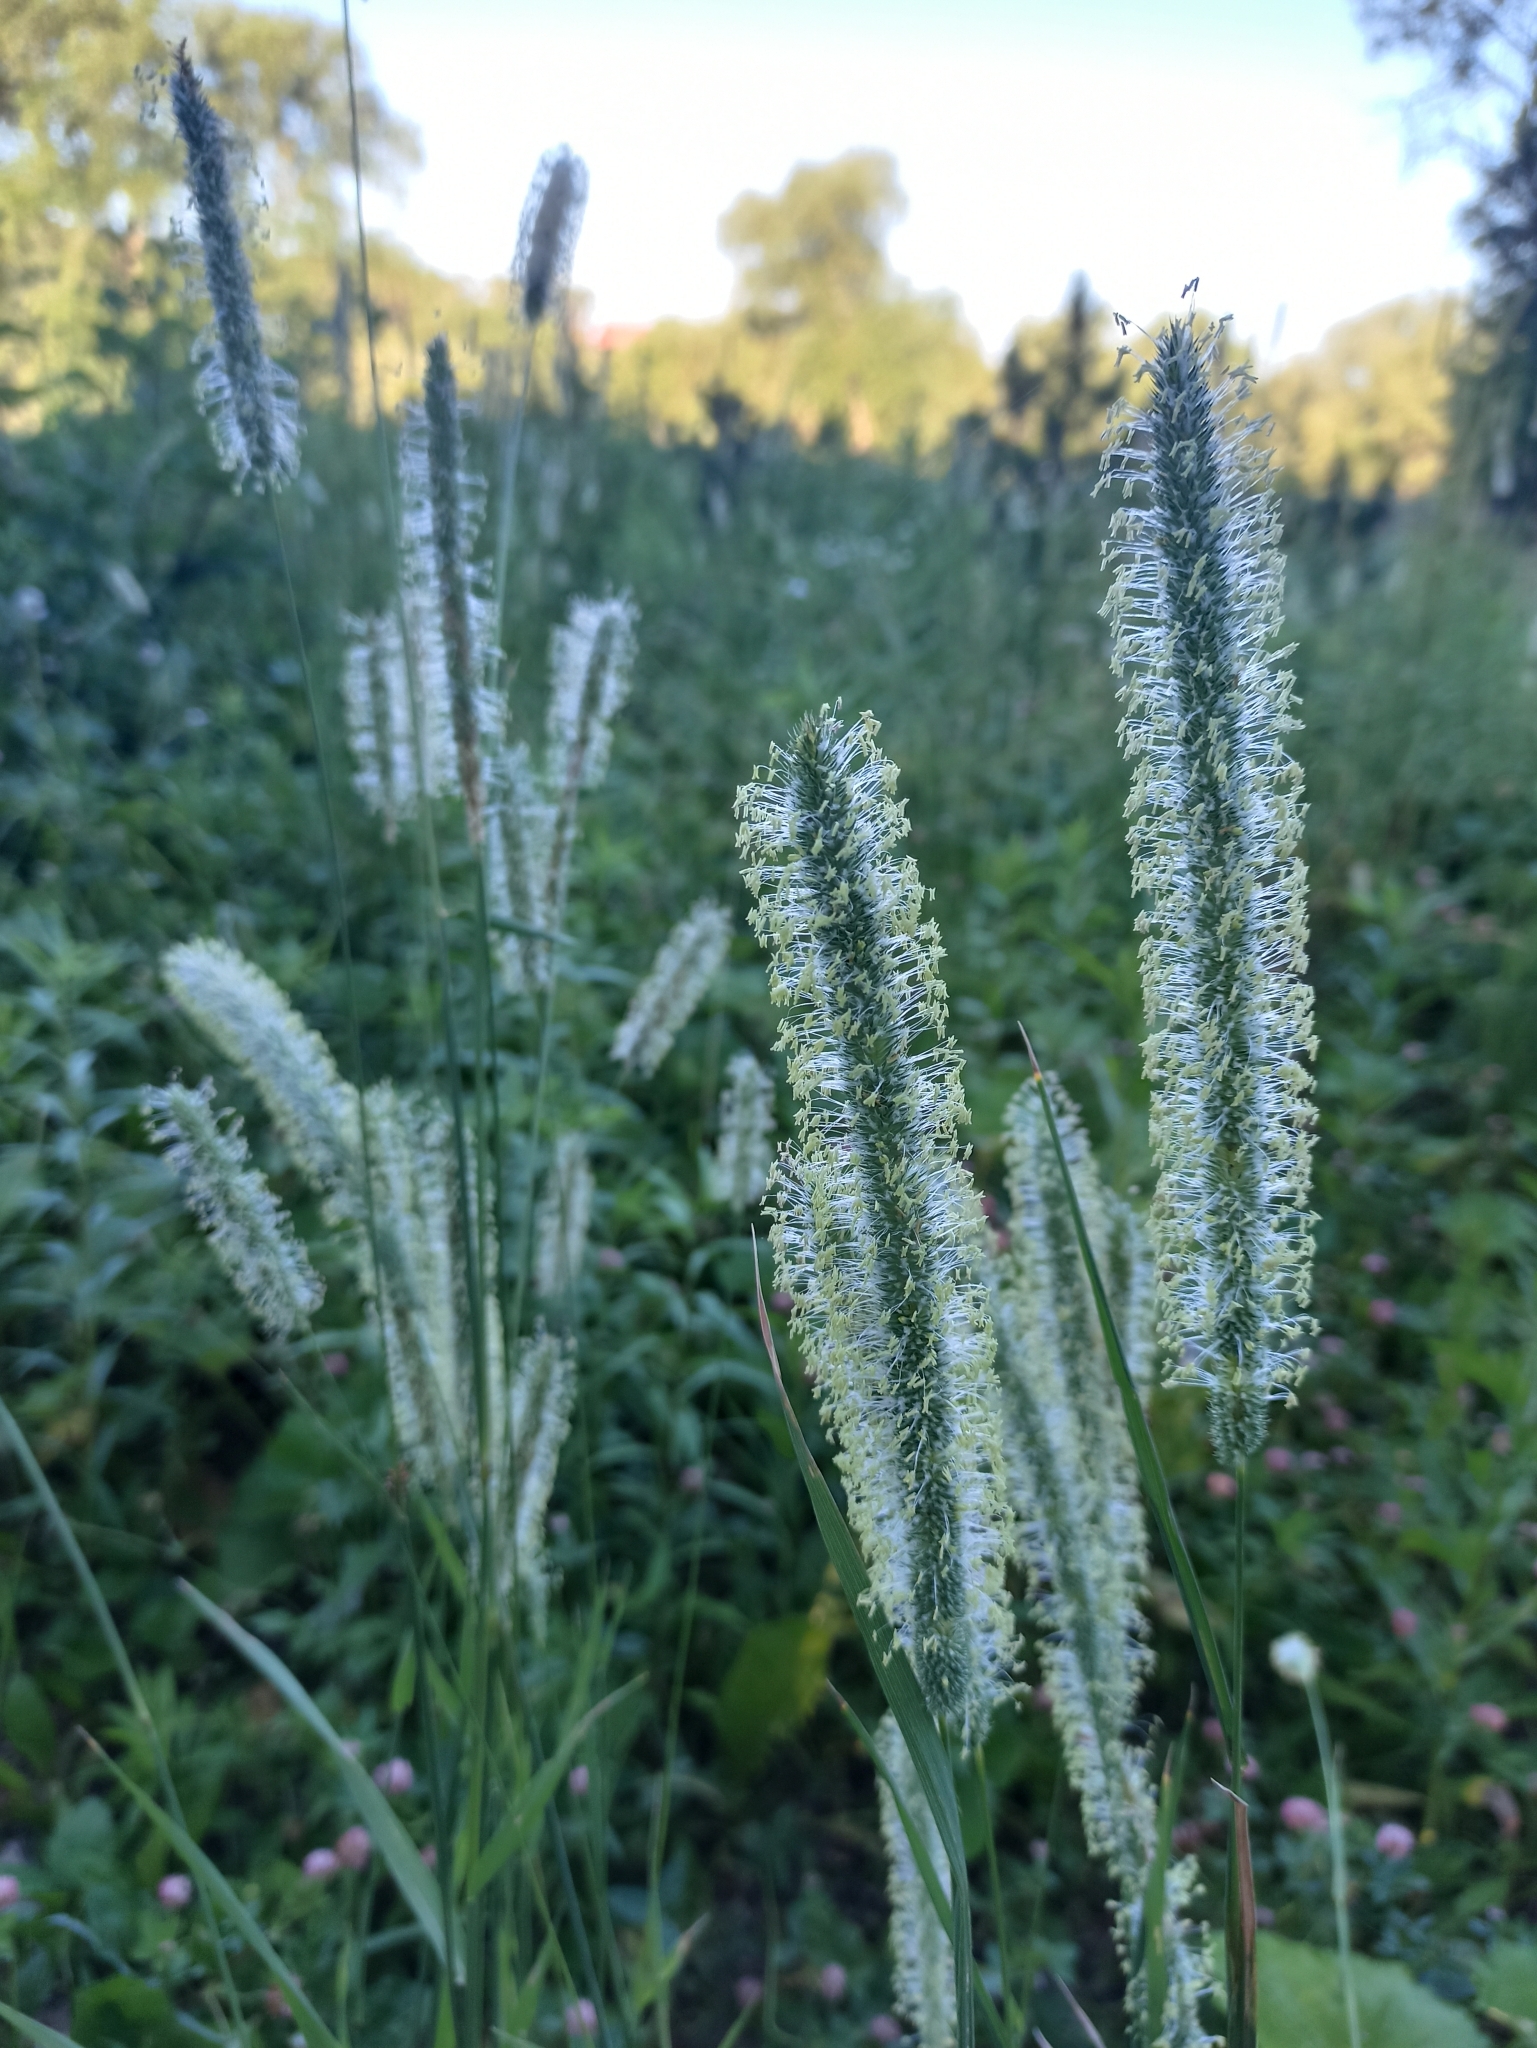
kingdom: Plantae
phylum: Tracheophyta
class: Liliopsida
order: Poales
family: Poaceae
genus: Phleum
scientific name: Phleum pratense
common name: Timothy grass
